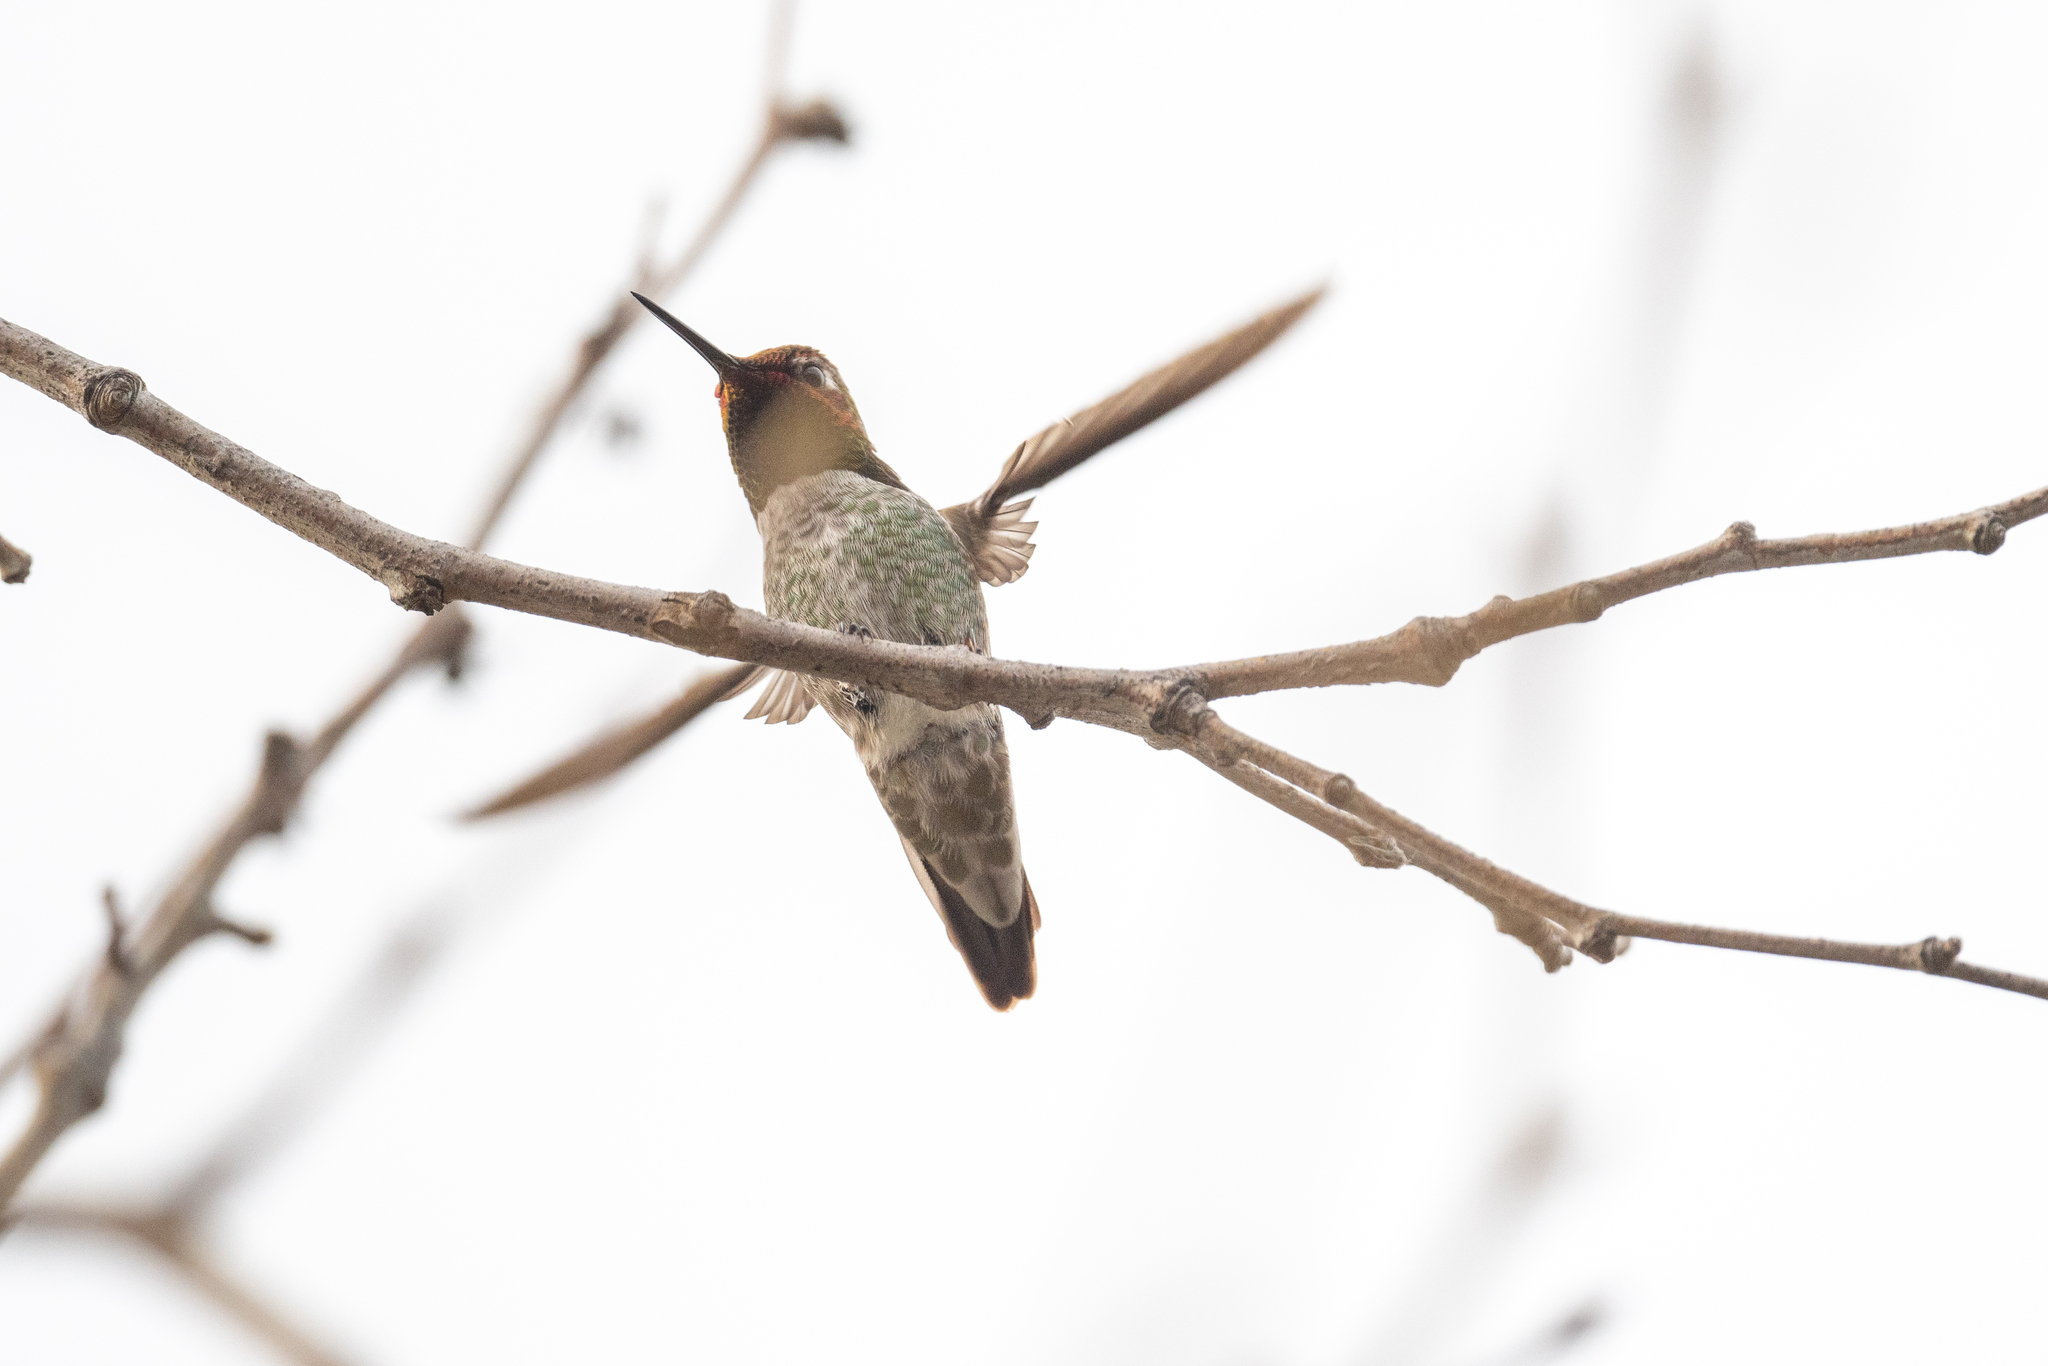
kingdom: Animalia
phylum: Chordata
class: Aves
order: Apodiformes
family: Trochilidae
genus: Calypte
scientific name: Calypte anna
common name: Anna's hummingbird
